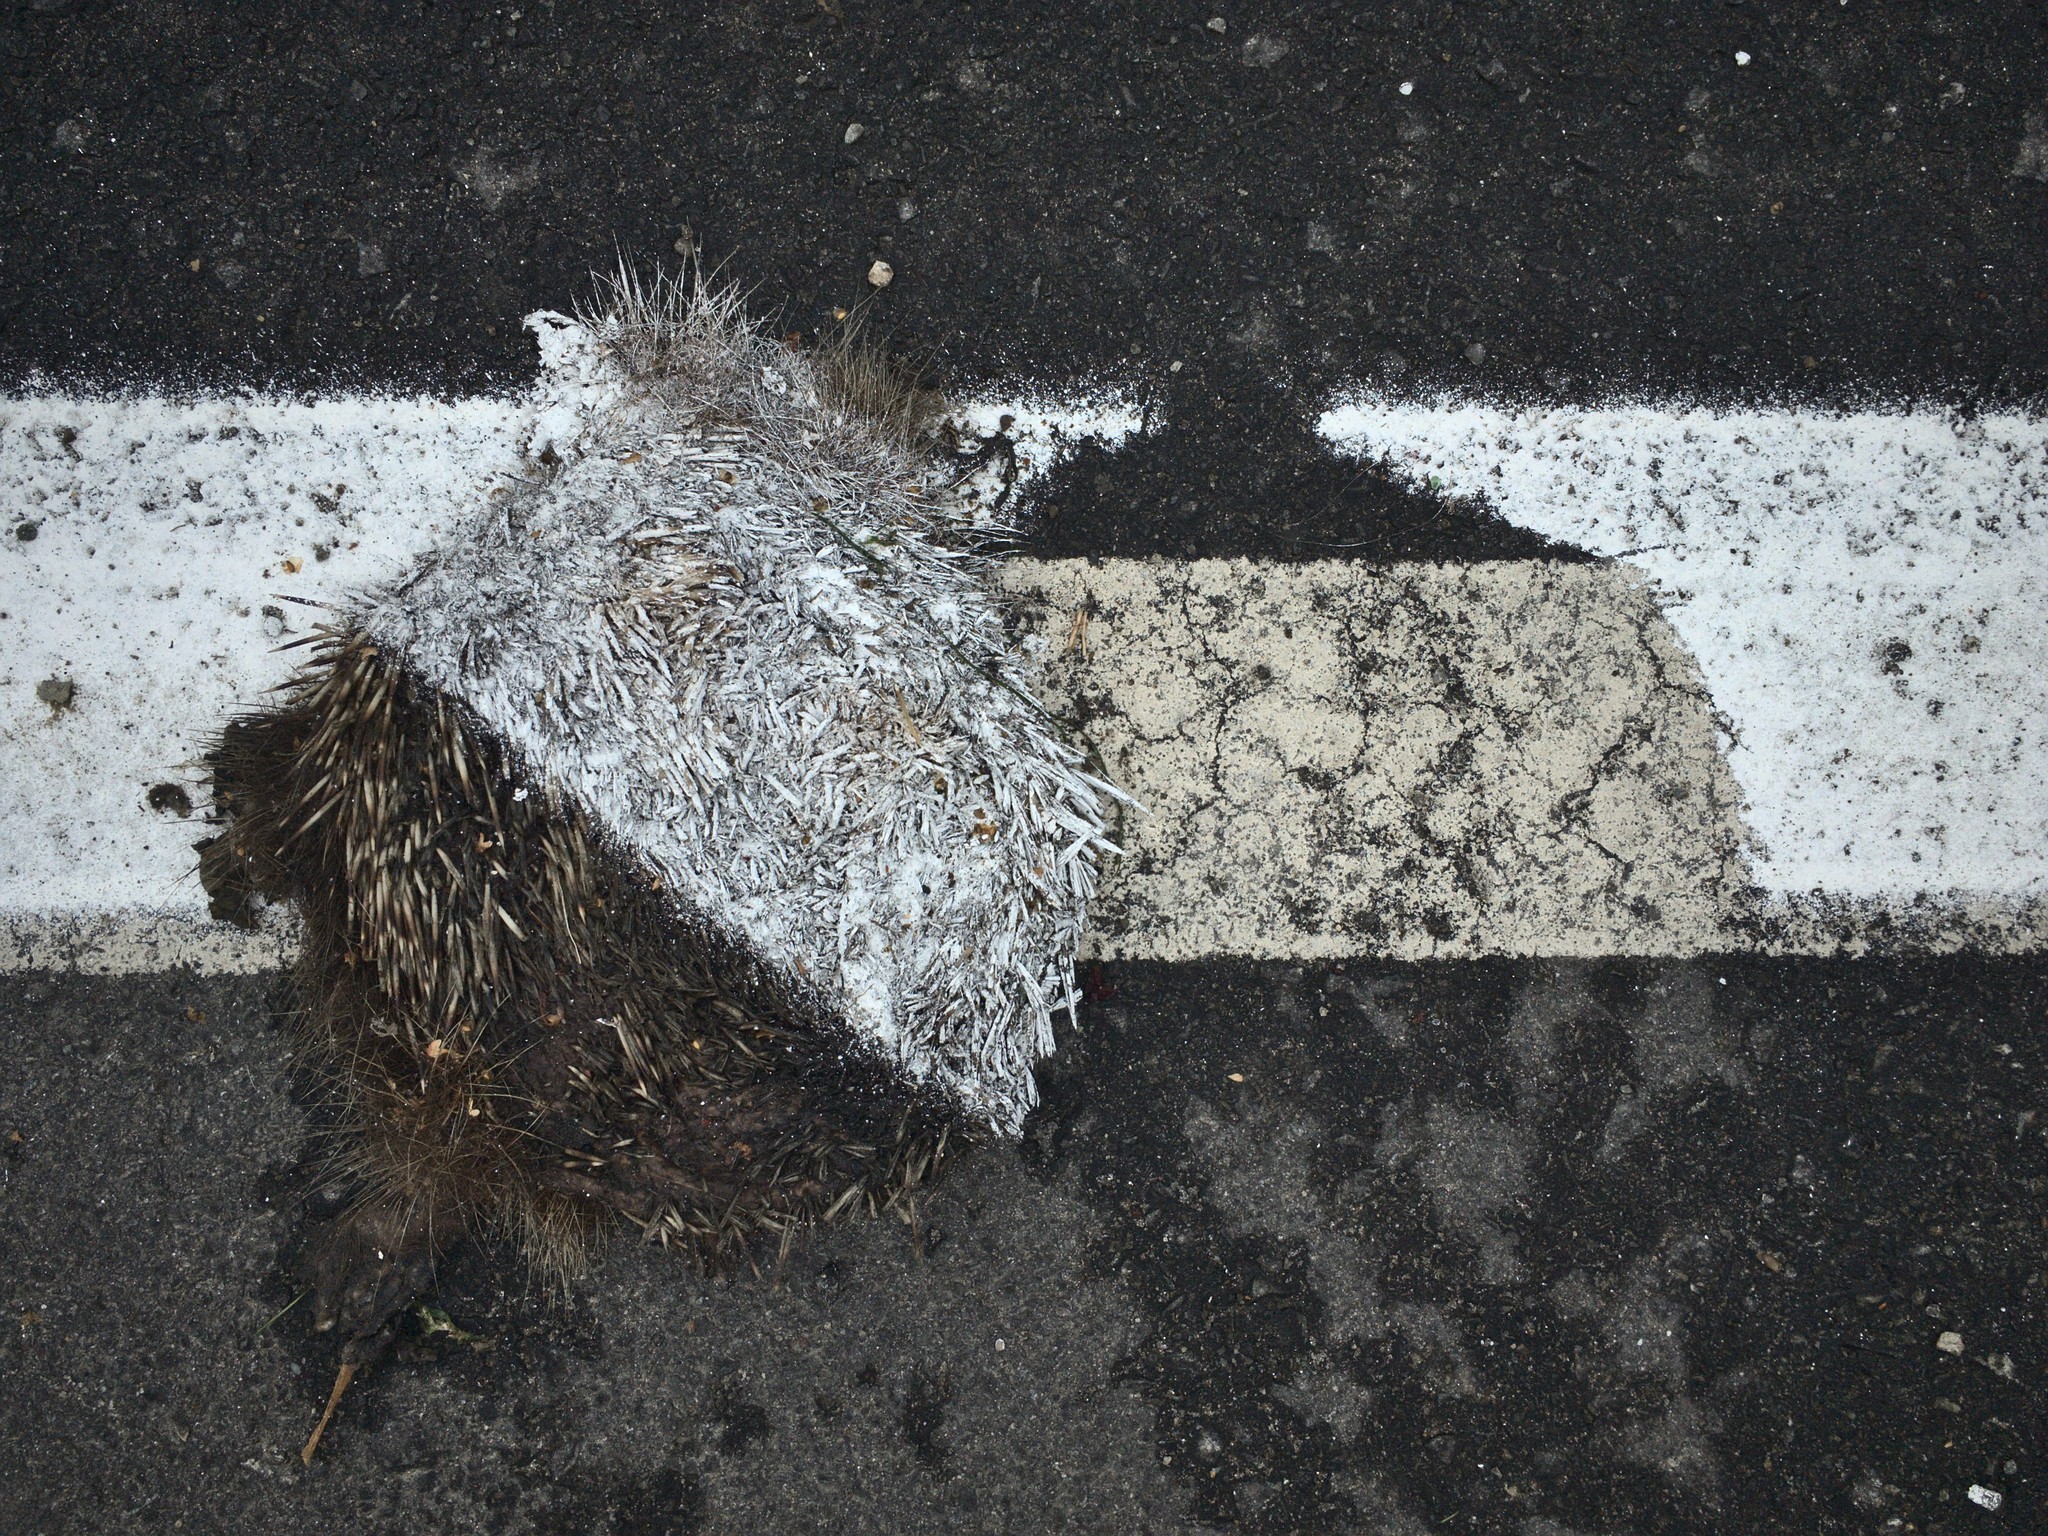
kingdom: Animalia
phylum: Chordata
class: Mammalia
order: Erinaceomorpha
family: Erinaceidae
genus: Erinaceus
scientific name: Erinaceus europaeus
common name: West european hedgehog
